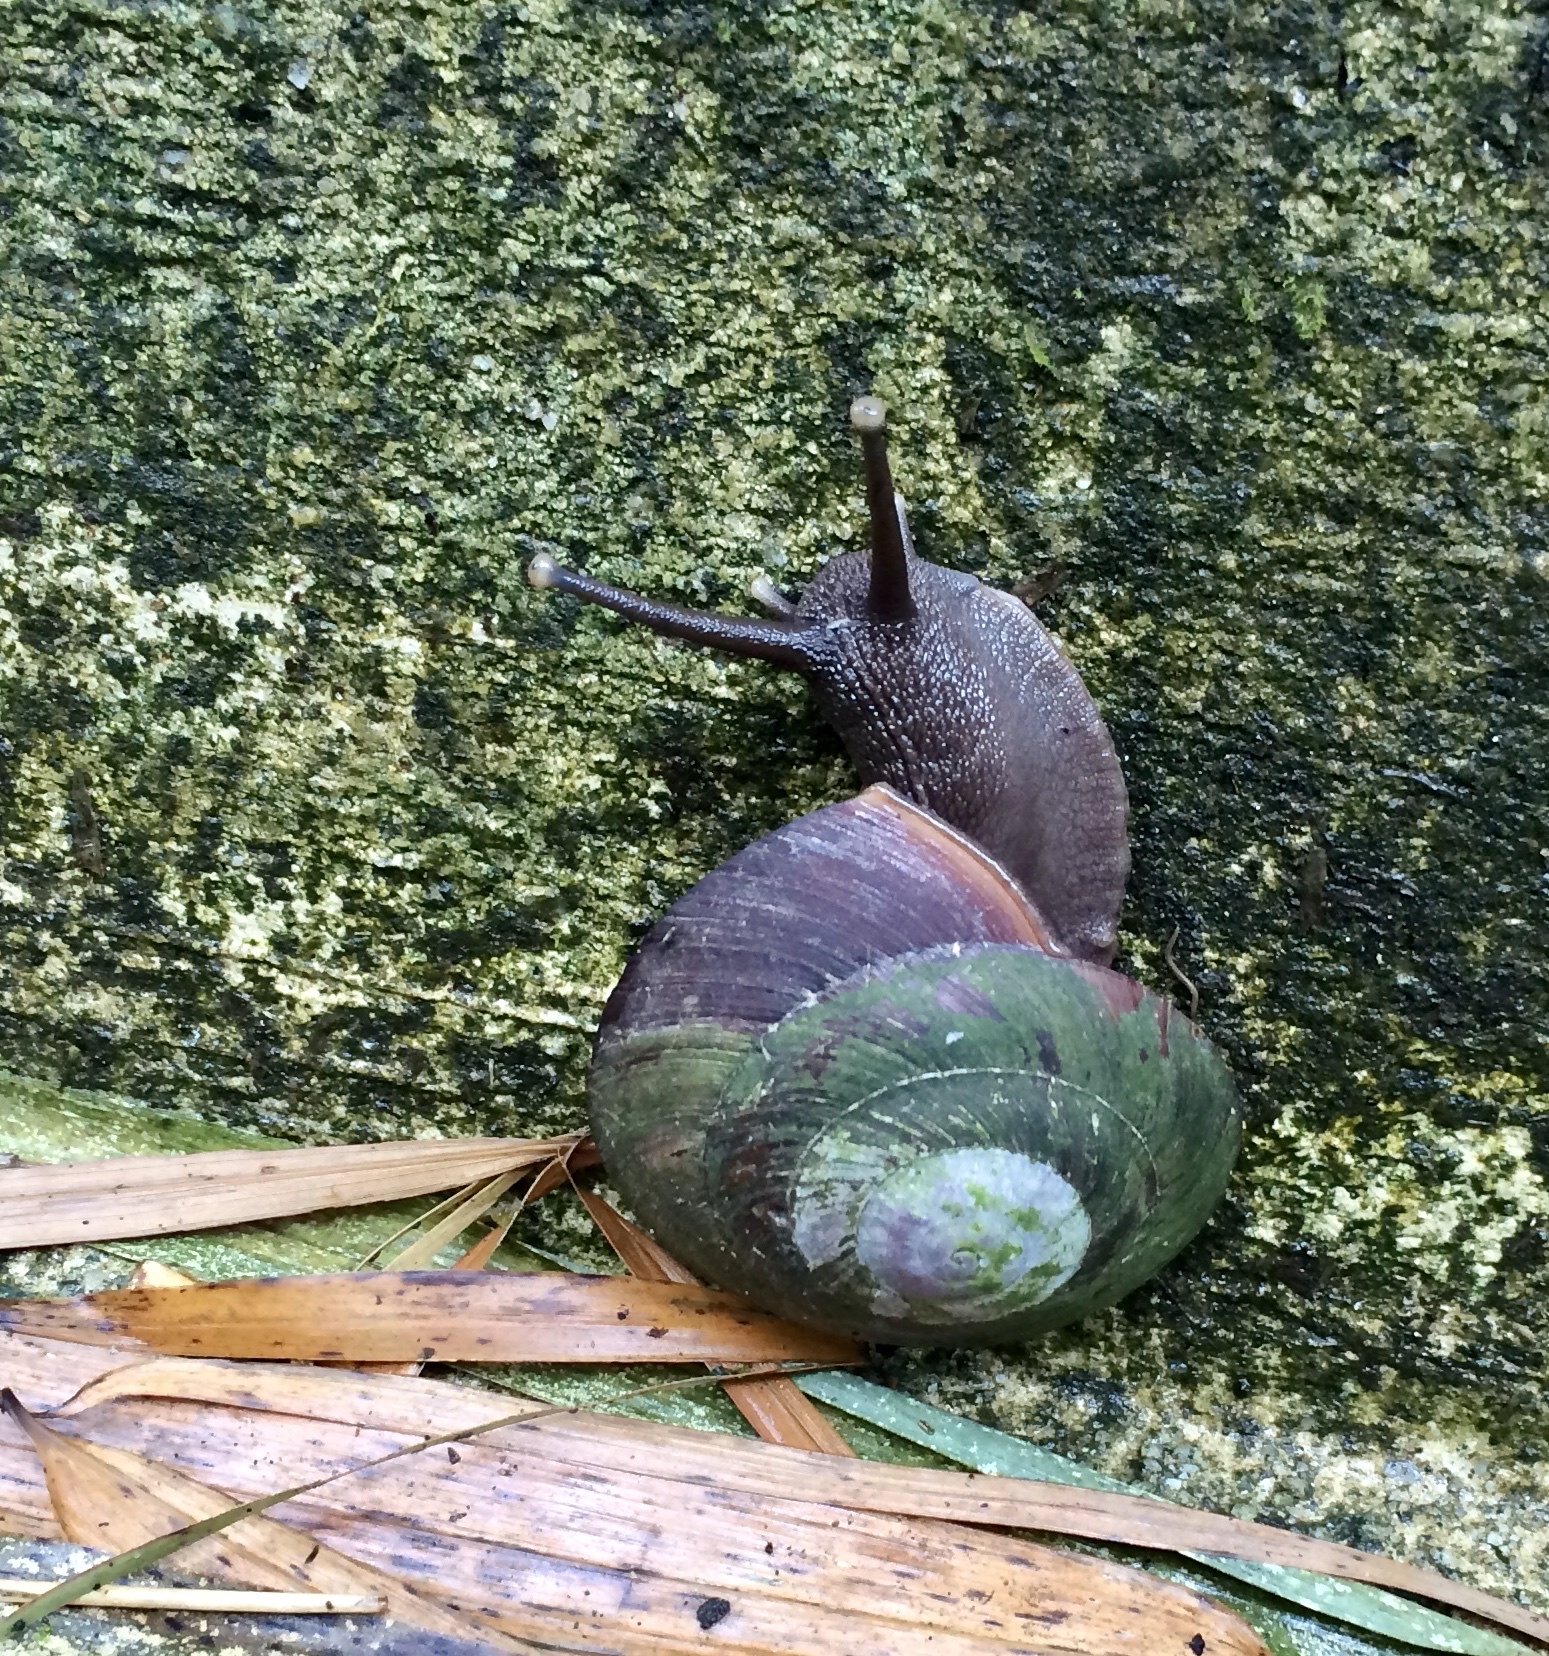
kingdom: Animalia
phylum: Mollusca
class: Gastropoda
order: Stylommatophora
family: Solaropsidae
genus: Caracolus
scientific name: Caracolus carocolla
